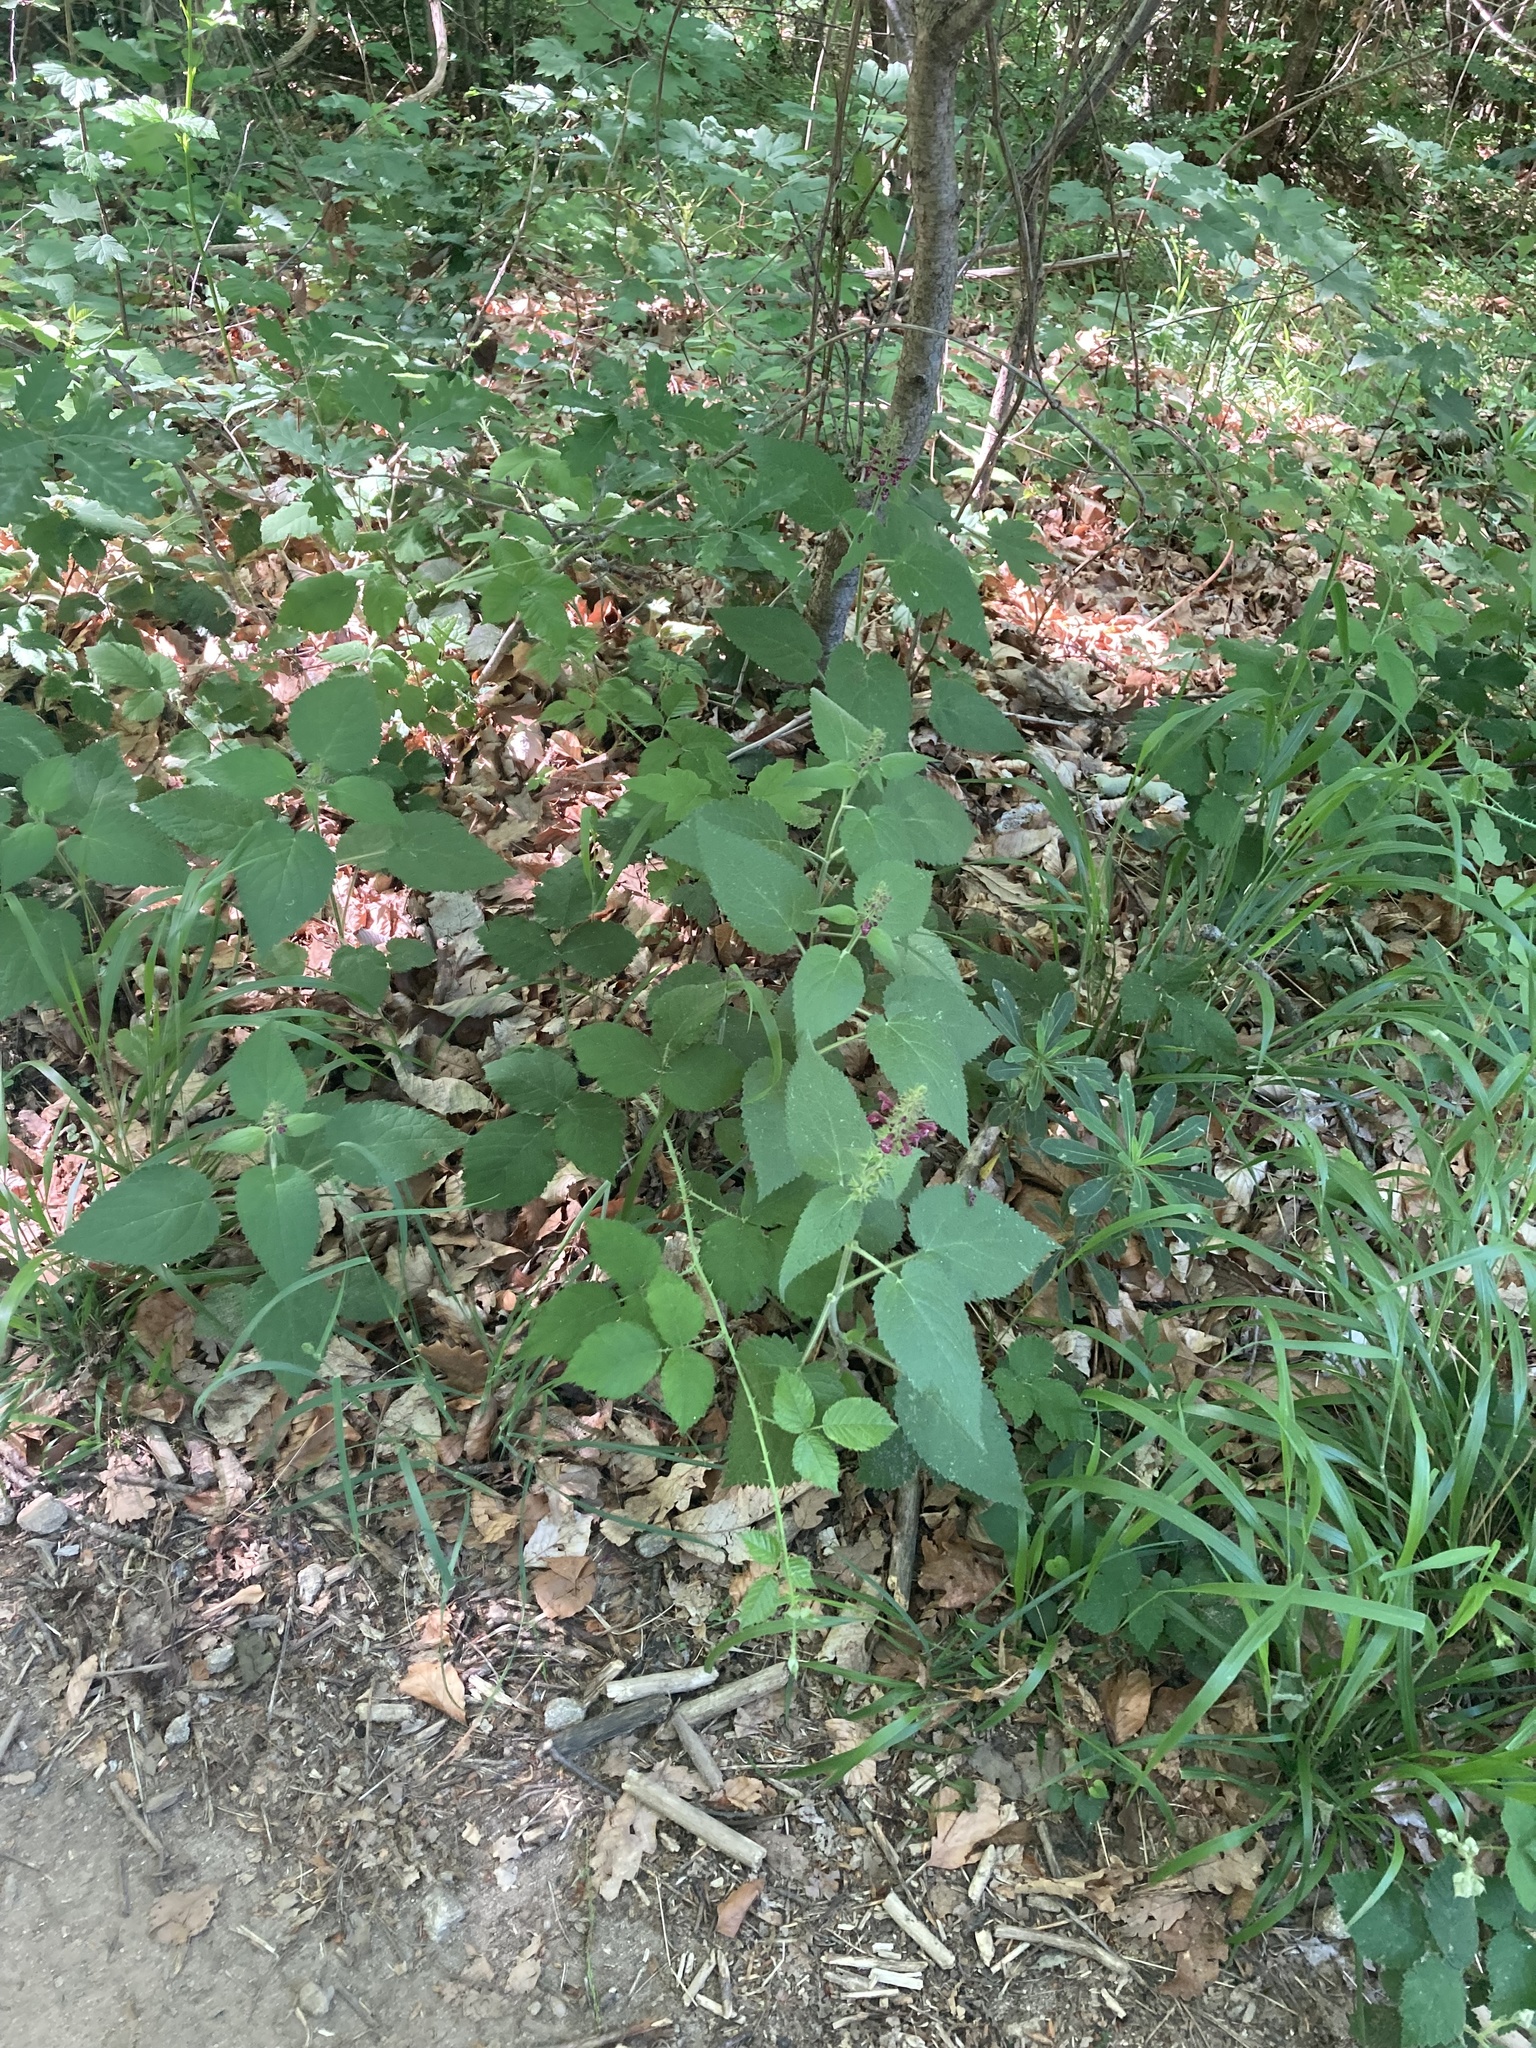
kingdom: Plantae
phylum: Tracheophyta
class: Magnoliopsida
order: Lamiales
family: Lamiaceae
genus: Stachys
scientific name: Stachys sylvatica
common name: Hedge woundwort
